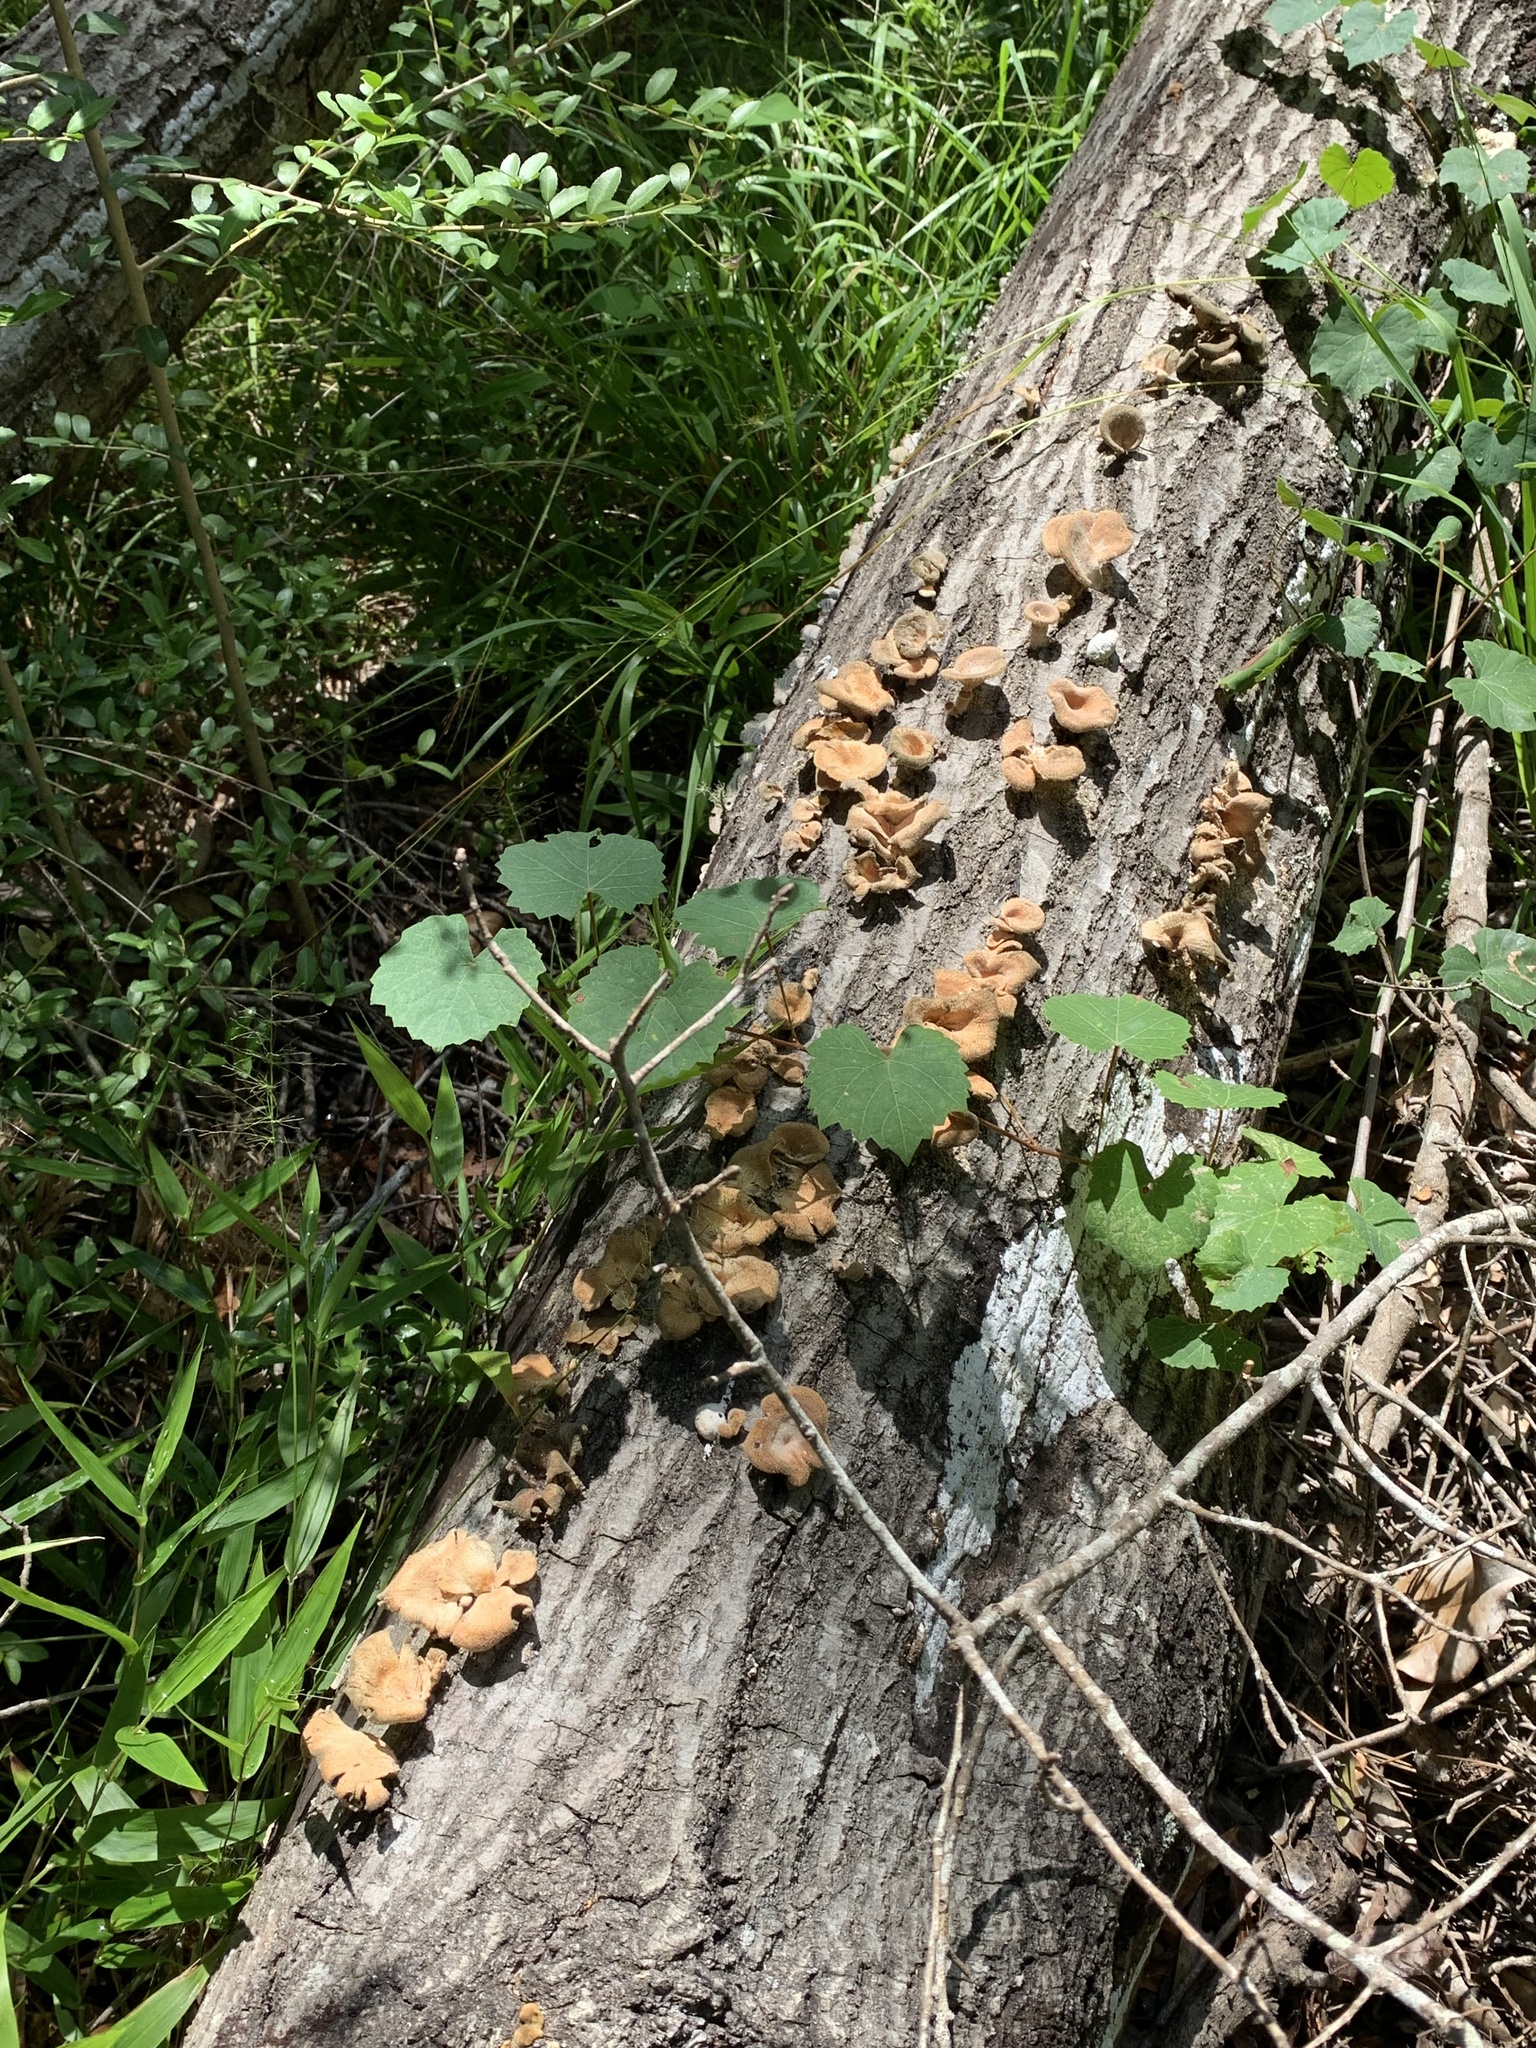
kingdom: Fungi
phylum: Basidiomycota
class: Agaricomycetes
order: Polyporales
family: Panaceae
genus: Panus
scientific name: Panus neostrigosus
